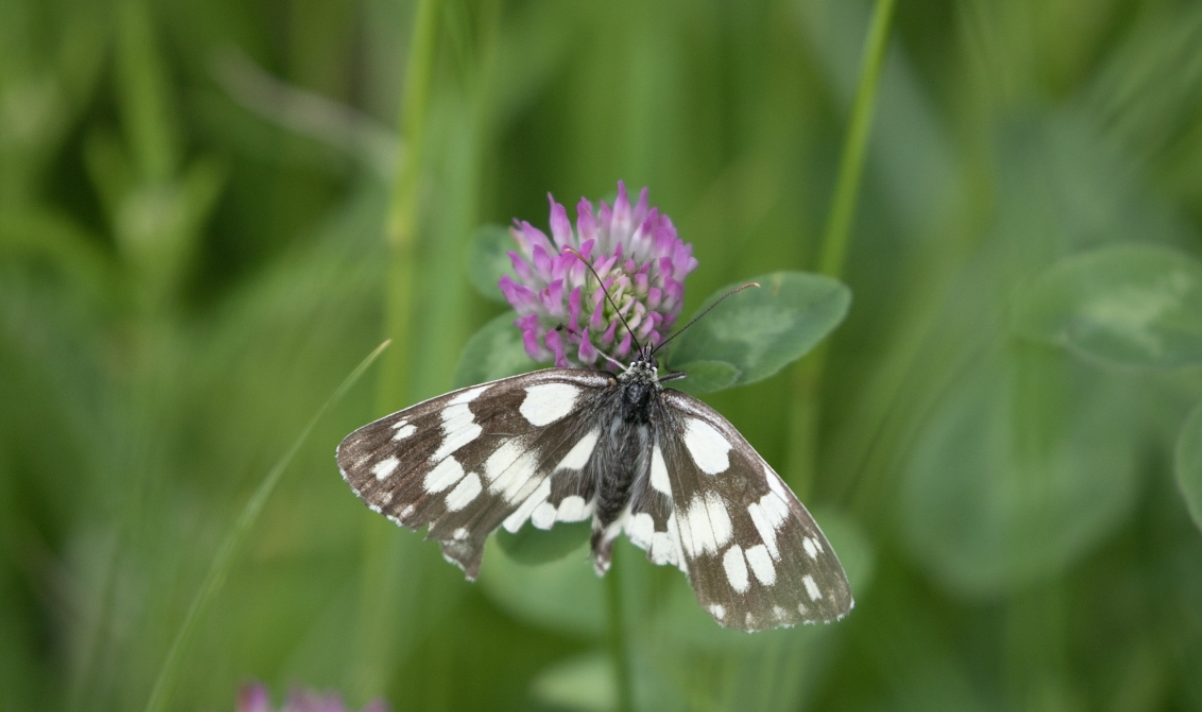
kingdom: Animalia
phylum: Arthropoda
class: Insecta
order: Lepidoptera
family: Nymphalidae
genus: Melanargia
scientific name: Melanargia galathea
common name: Marbled white
